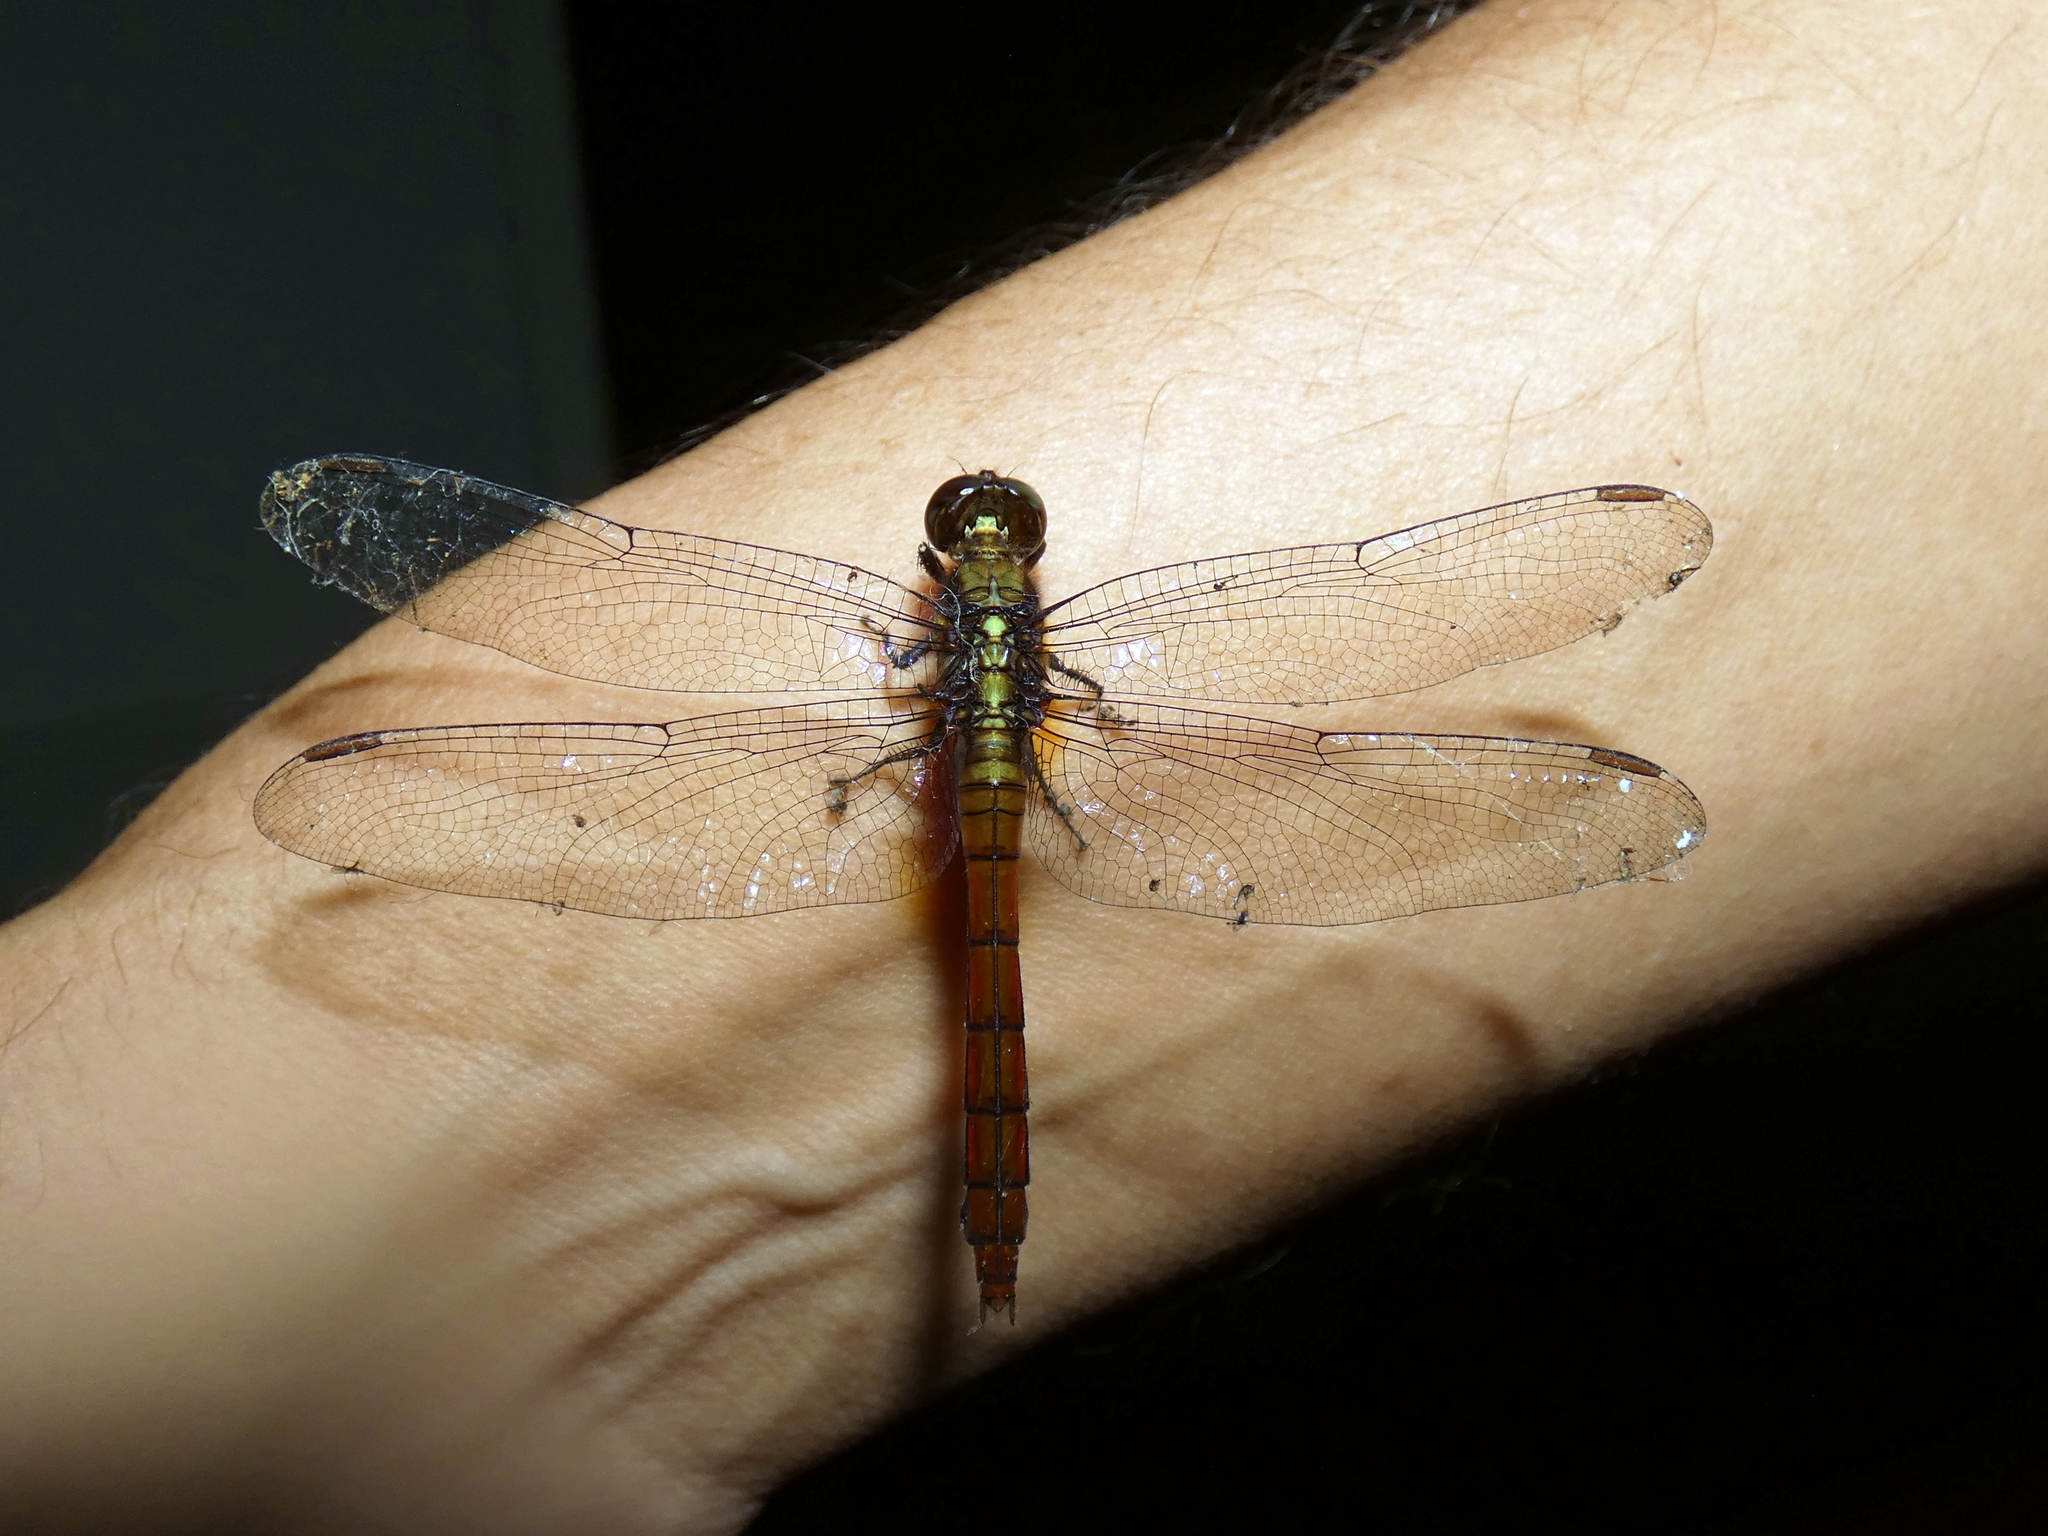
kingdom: Animalia
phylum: Arthropoda
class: Insecta
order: Odonata
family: Libellulidae
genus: Orthetrum
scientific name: Orthetrum villosovittatum
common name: Firery skimmer
